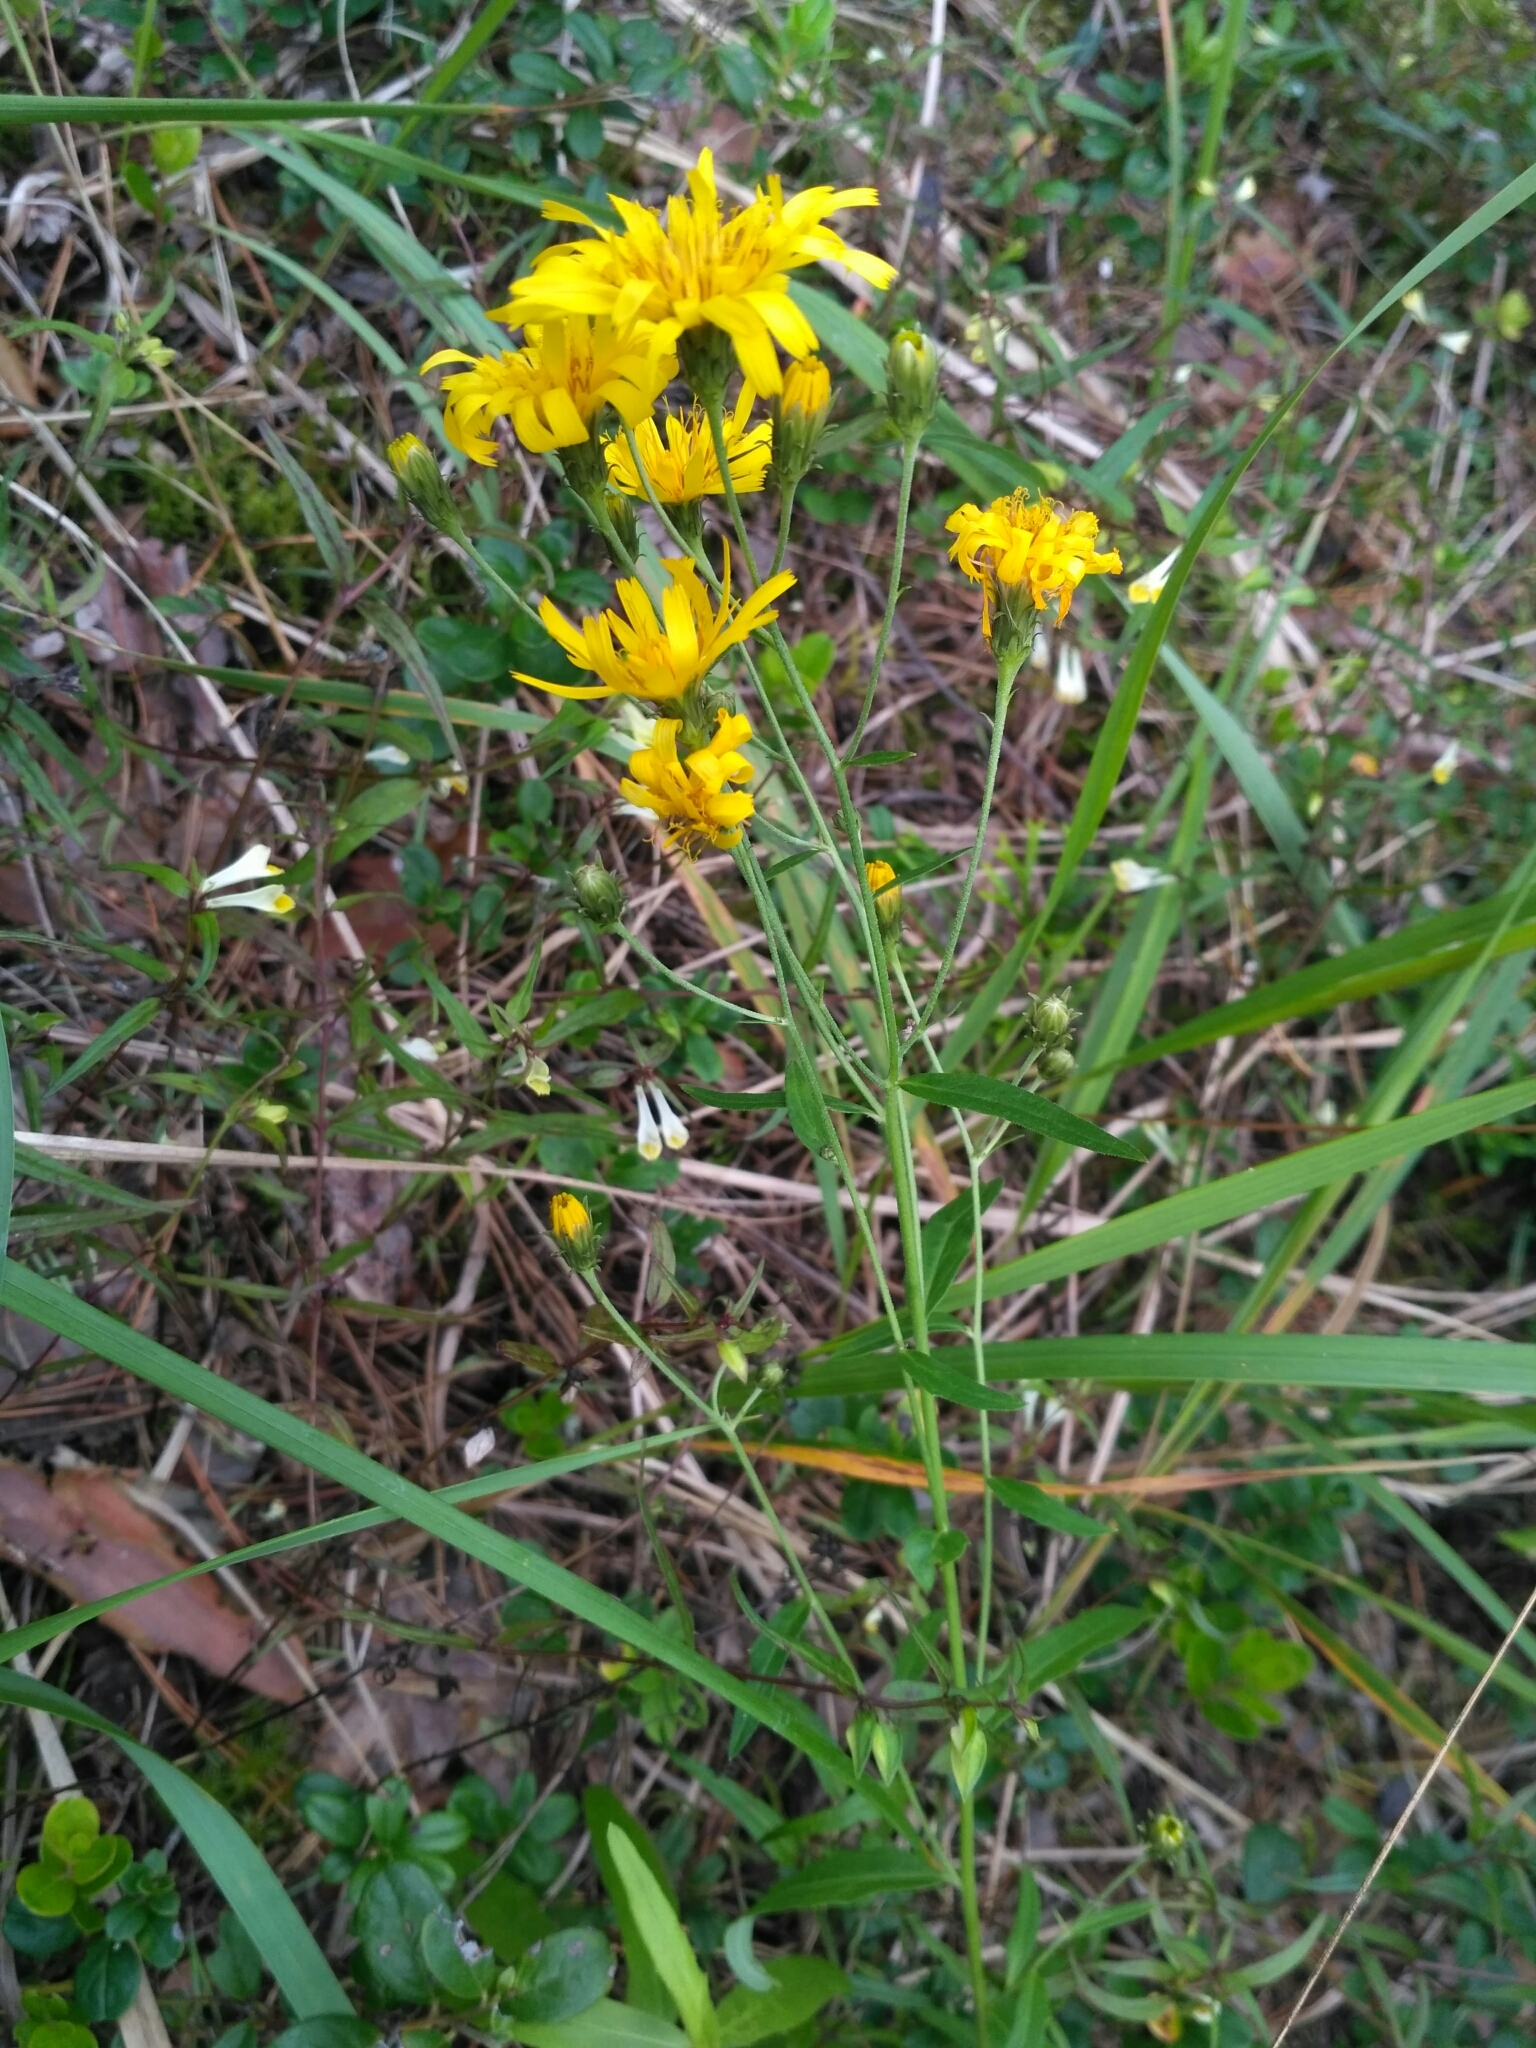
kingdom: Plantae
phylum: Tracheophyta
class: Magnoliopsida
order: Asterales
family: Asteraceae
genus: Hieracium
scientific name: Hieracium umbellatum
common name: Northern hawkweed
